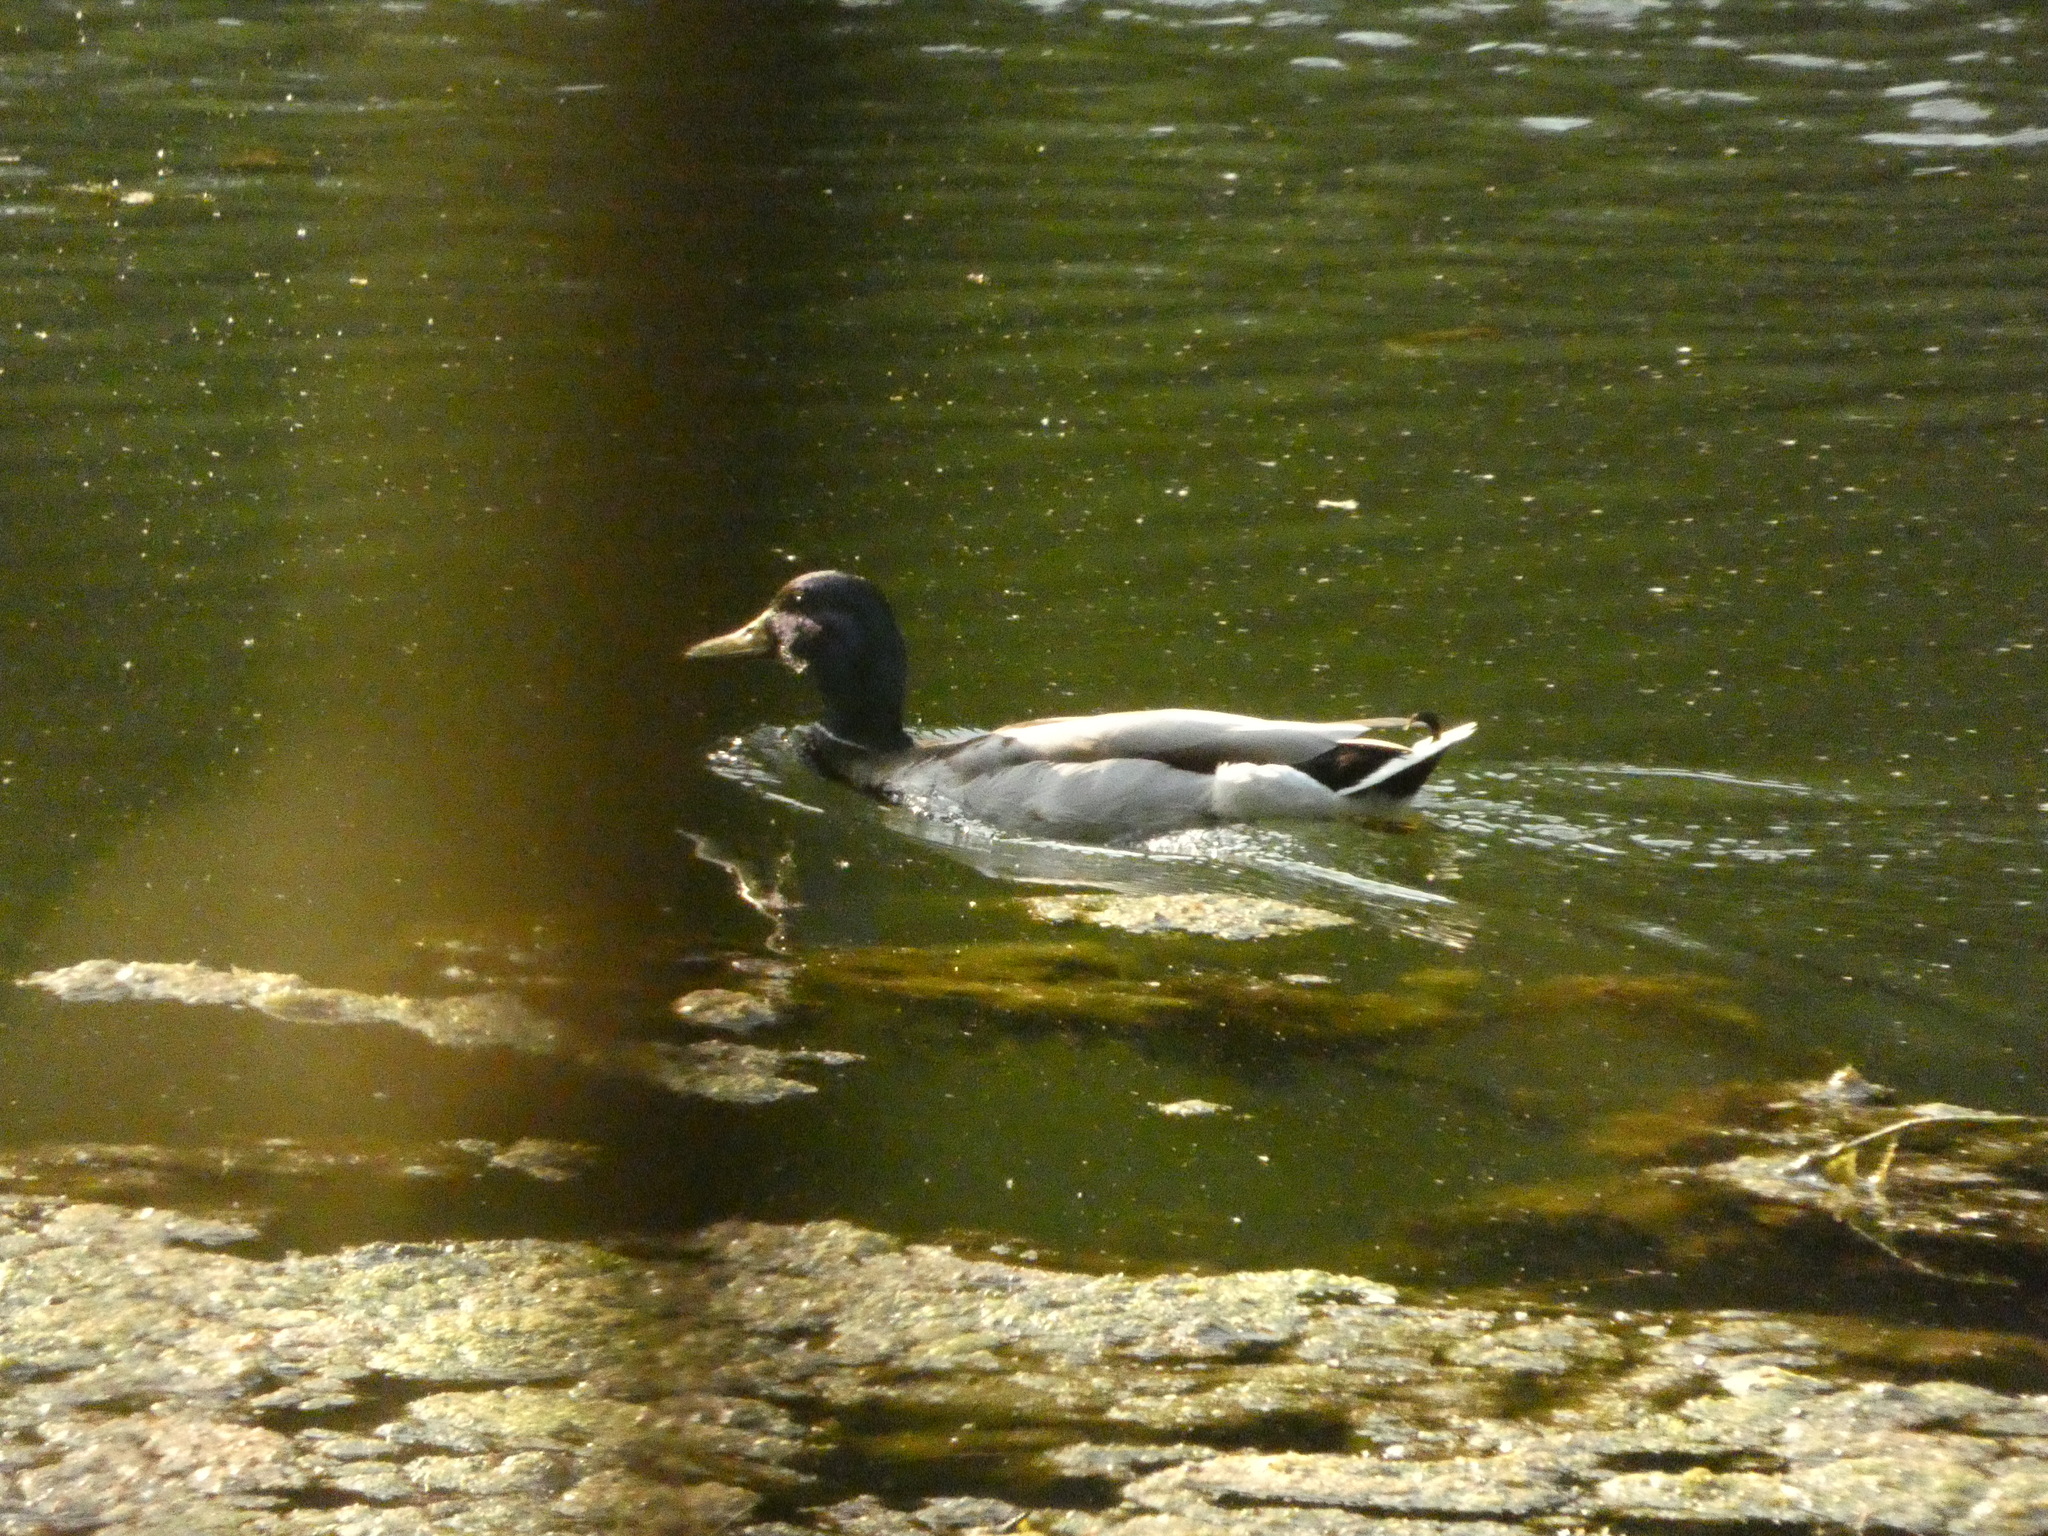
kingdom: Animalia
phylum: Chordata
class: Aves
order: Anseriformes
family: Anatidae
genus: Anas
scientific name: Anas platyrhynchos
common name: Mallard
